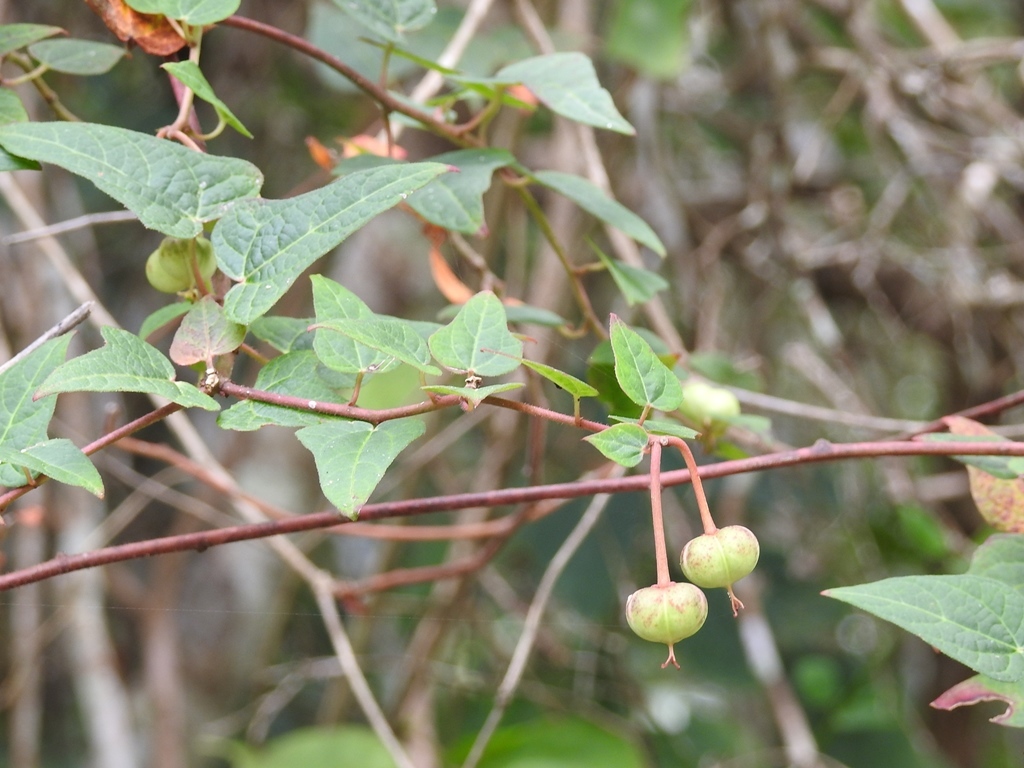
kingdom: Plantae
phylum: Tracheophyta
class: Magnoliopsida
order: Malpighiales
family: Euphorbiaceae
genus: Dalembertia
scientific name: Dalembertia triangularis
